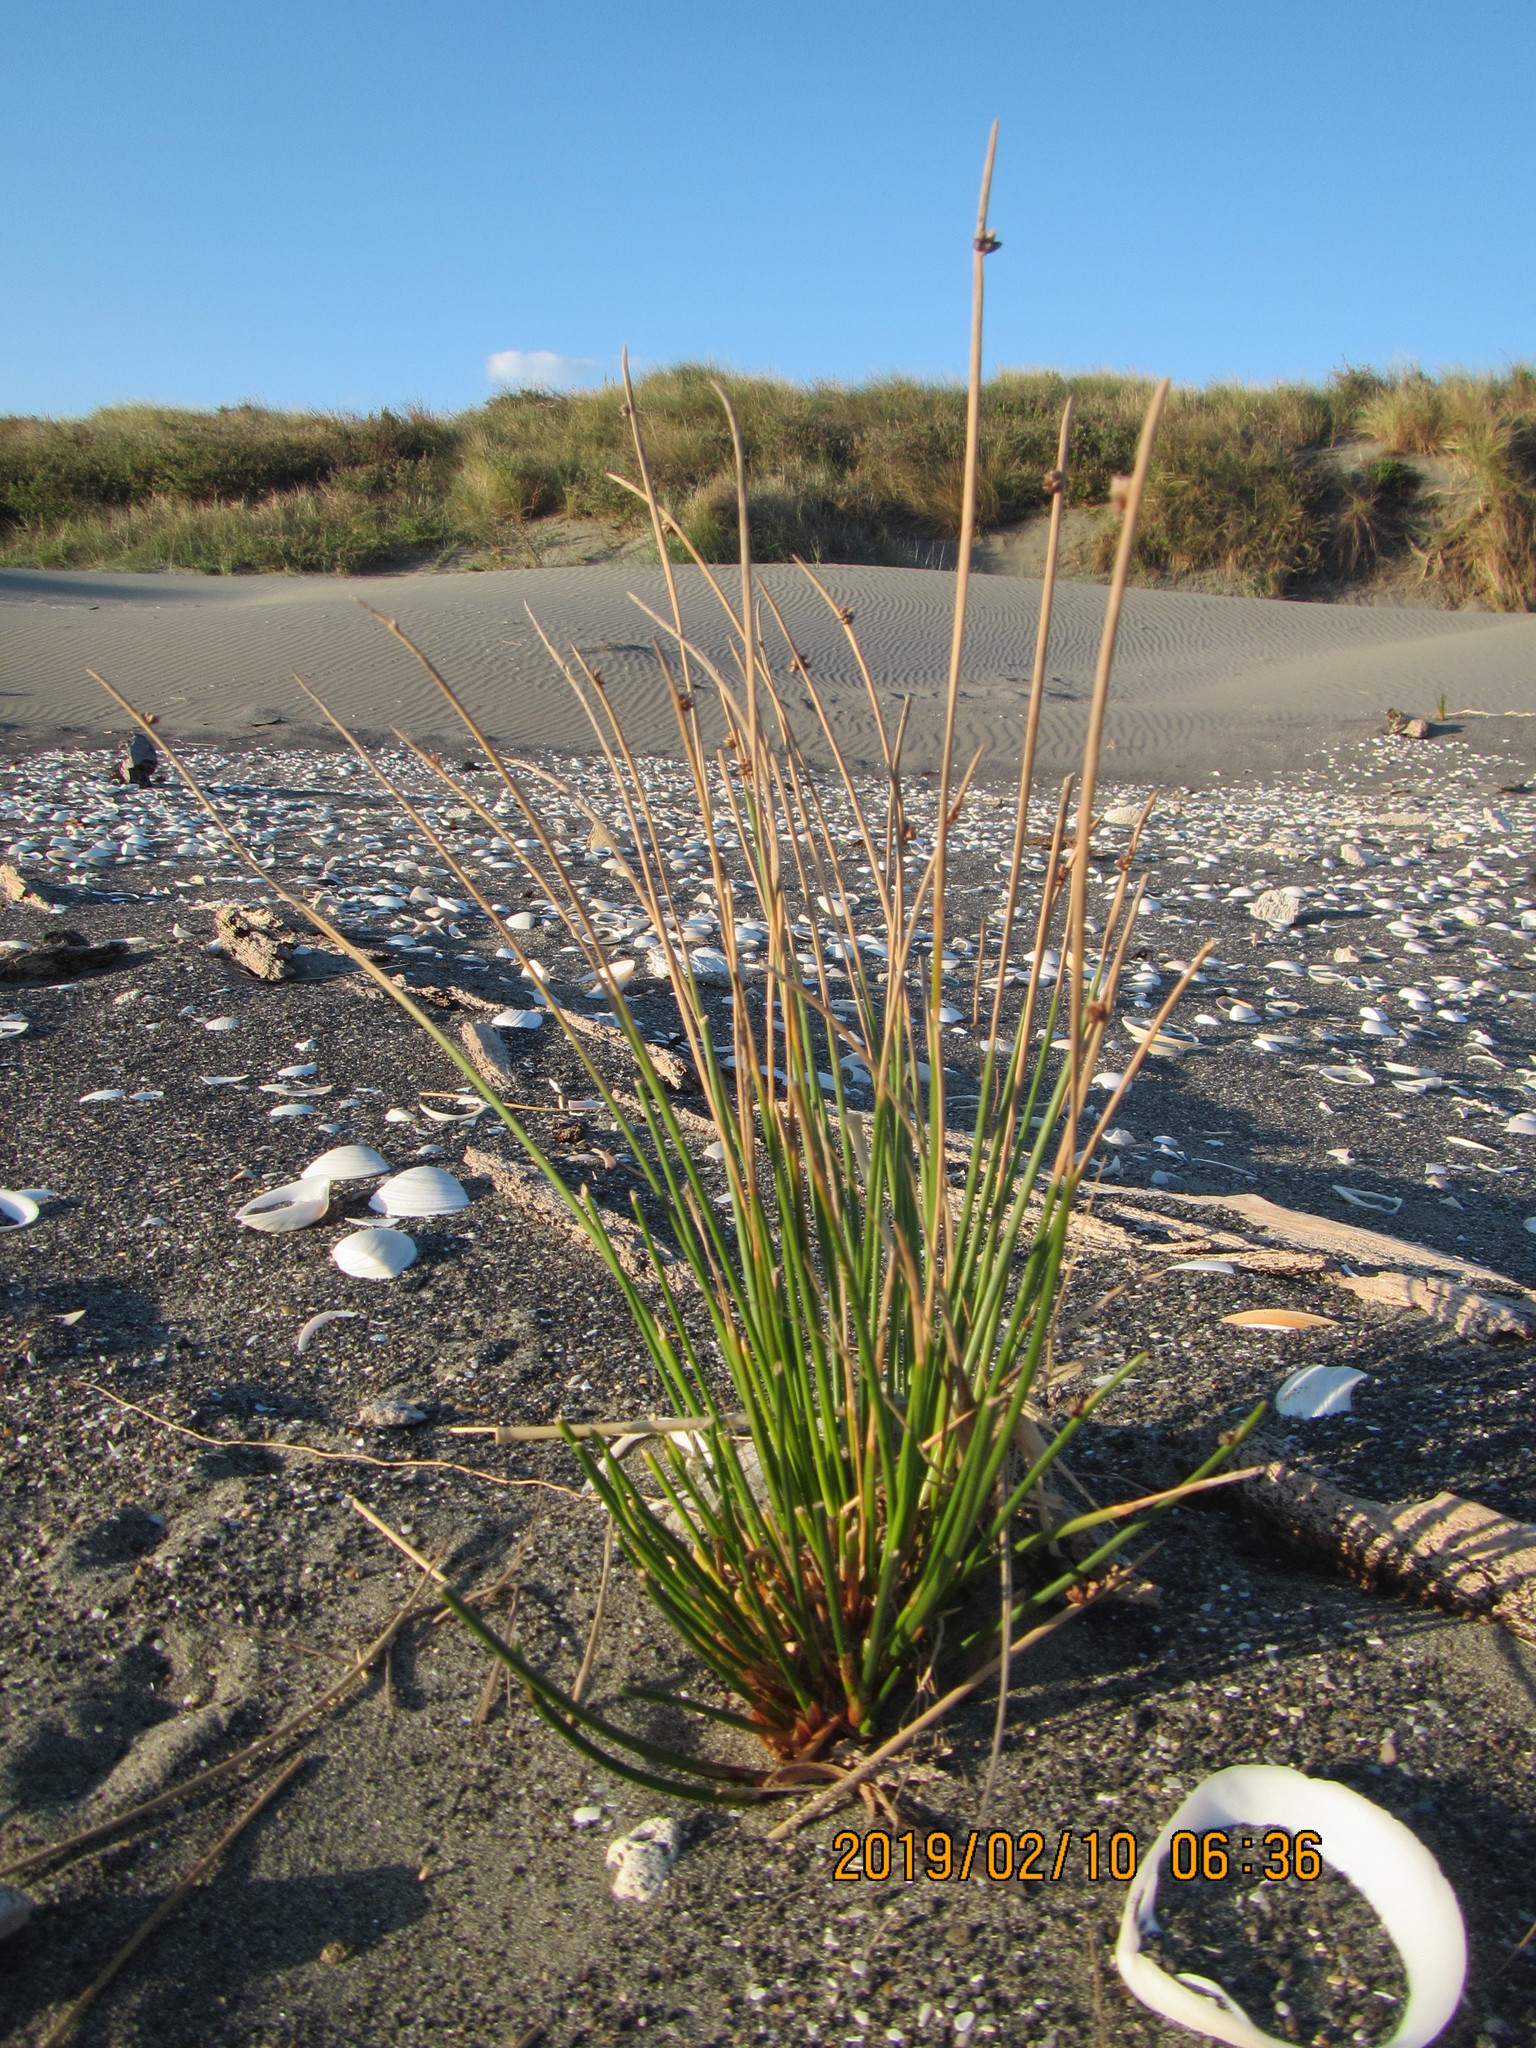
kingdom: Plantae
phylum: Tracheophyta
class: Liliopsida
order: Poales
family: Cyperaceae
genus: Ficinia
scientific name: Ficinia nodosa
